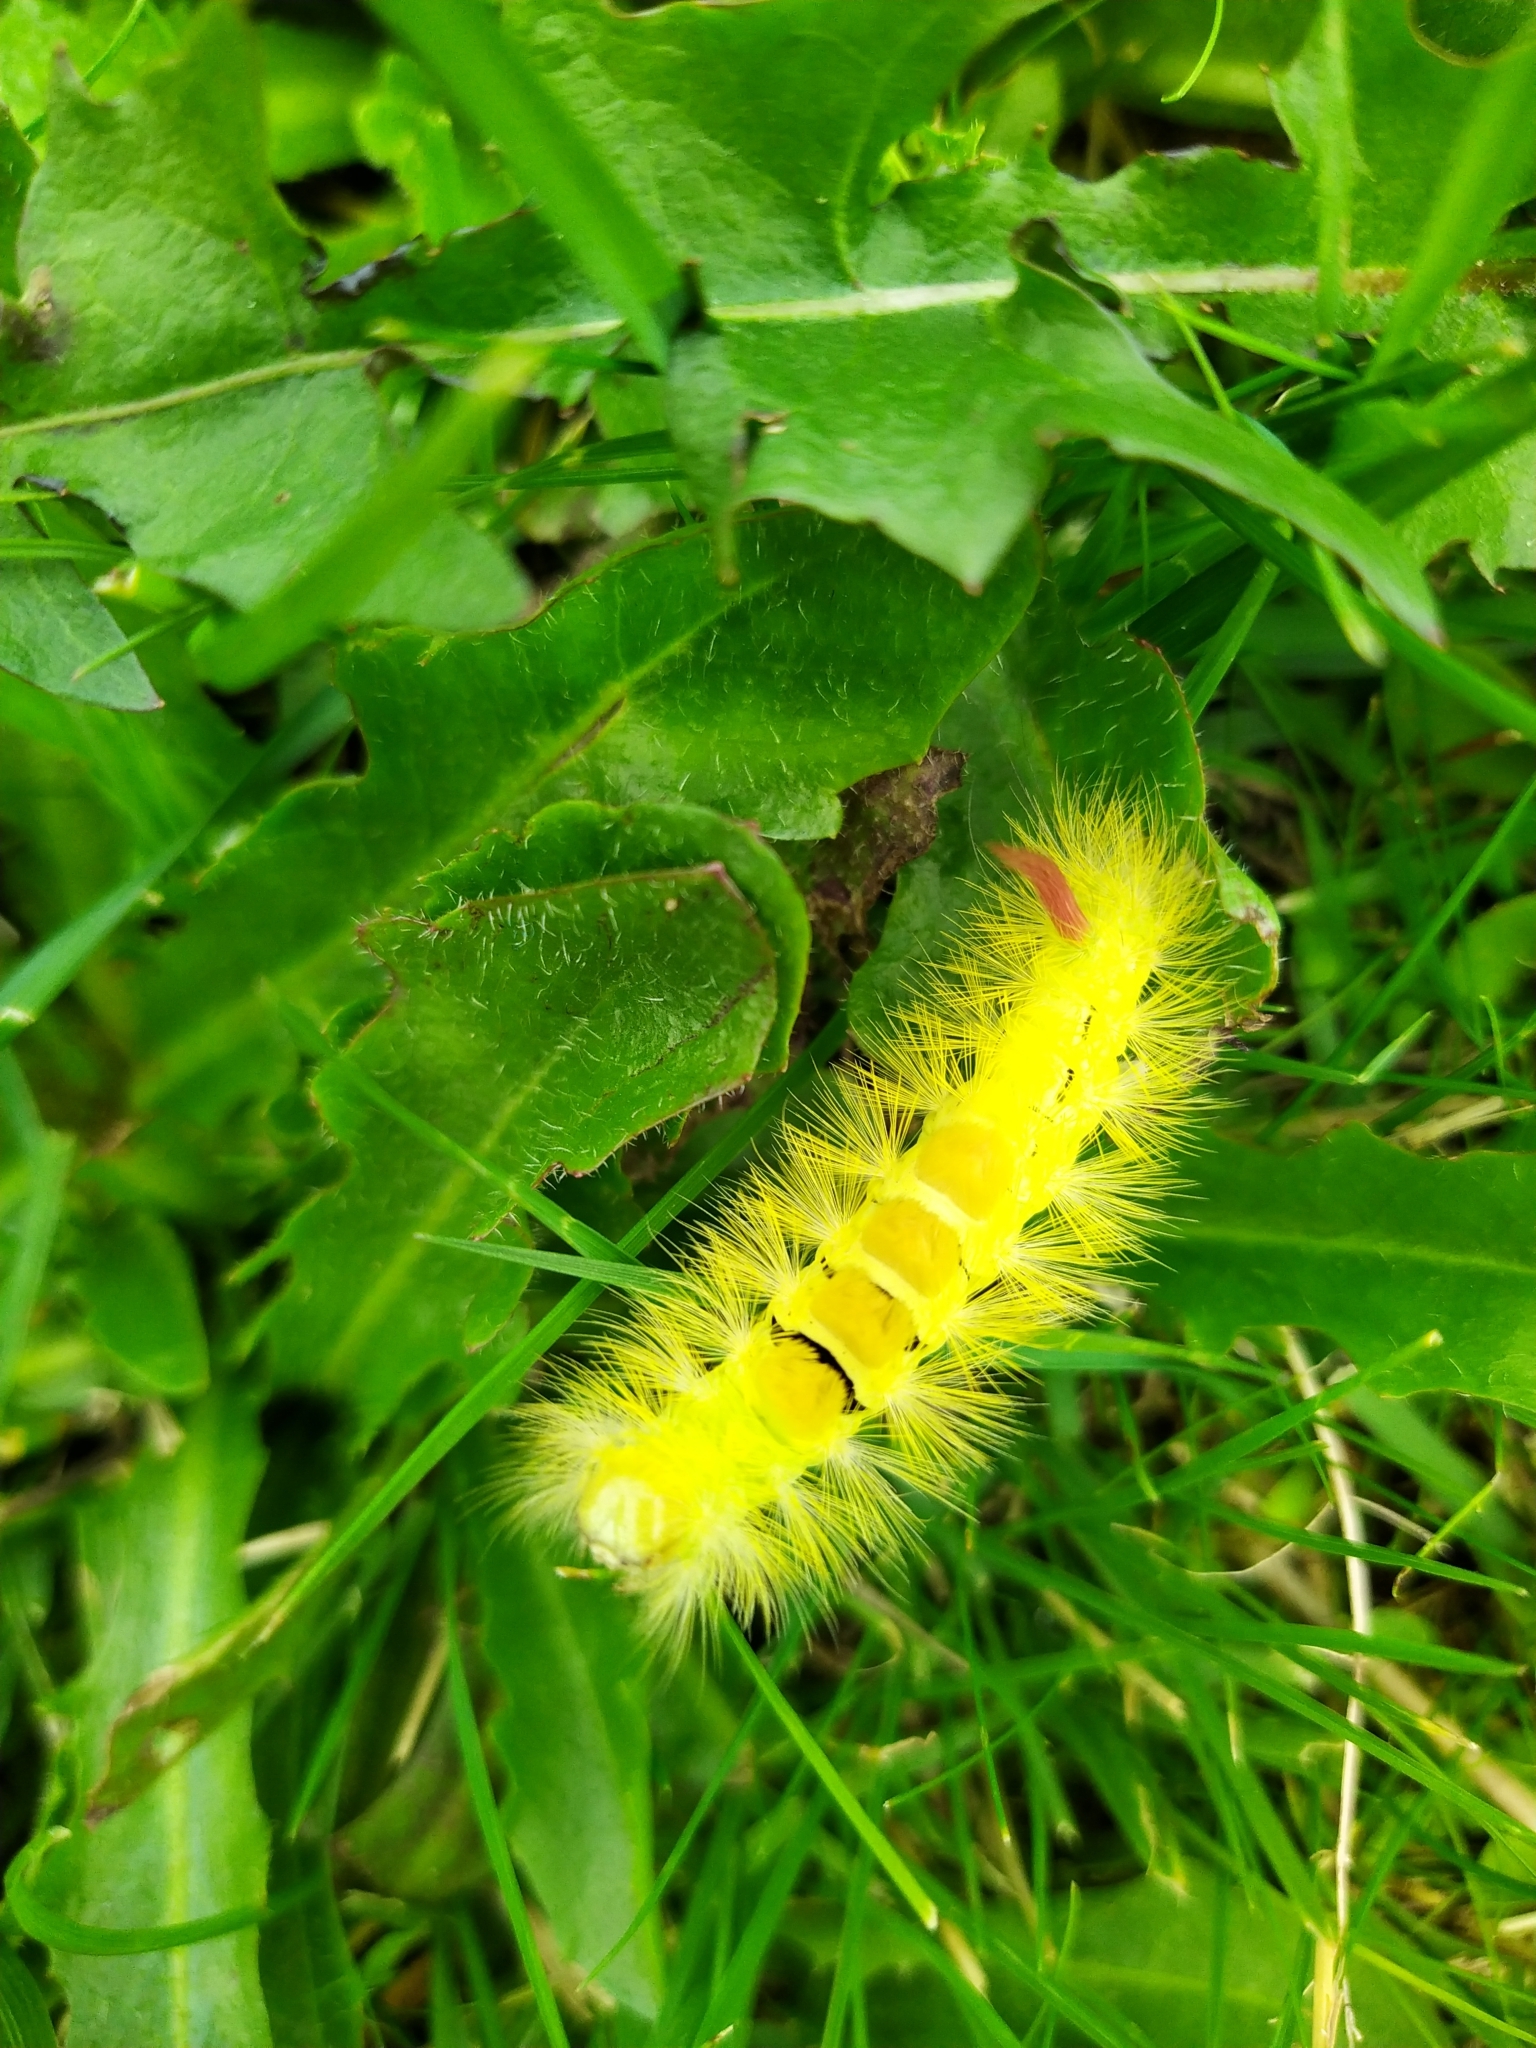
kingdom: Animalia
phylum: Arthropoda
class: Insecta
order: Lepidoptera
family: Erebidae
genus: Calliteara
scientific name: Calliteara pudibunda
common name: Pale tussock
